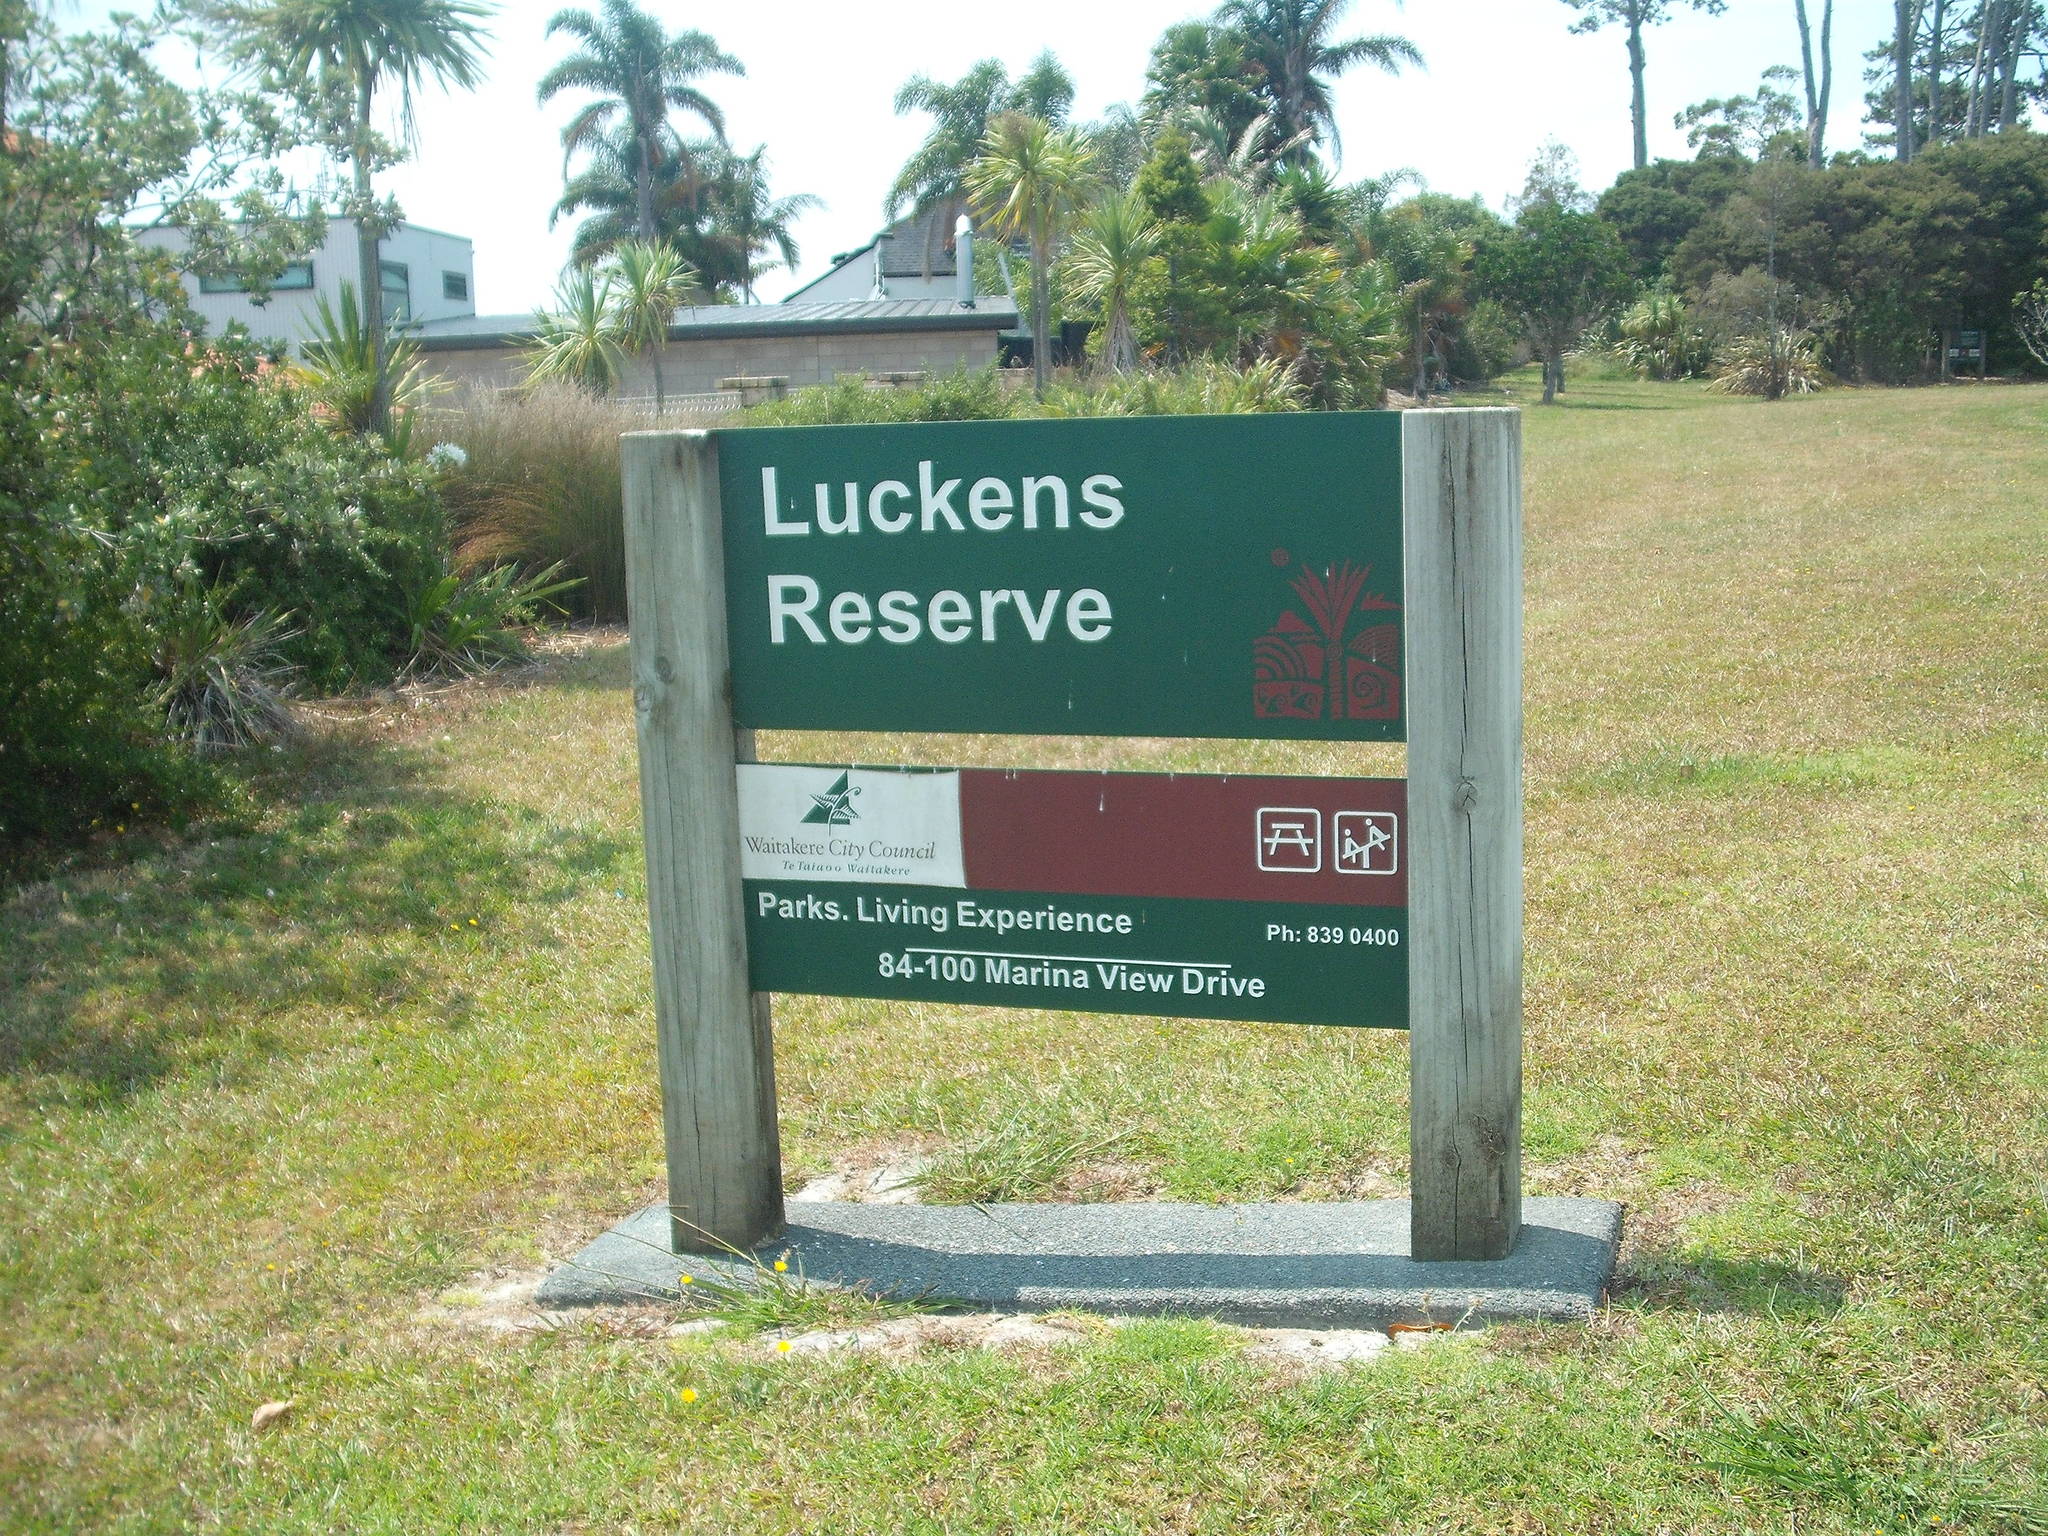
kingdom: Plantae
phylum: Tracheophyta
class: Magnoliopsida
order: Fabales
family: Fabaceae
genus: Acacia
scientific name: Acacia paradoxa
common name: Paradox acacia
